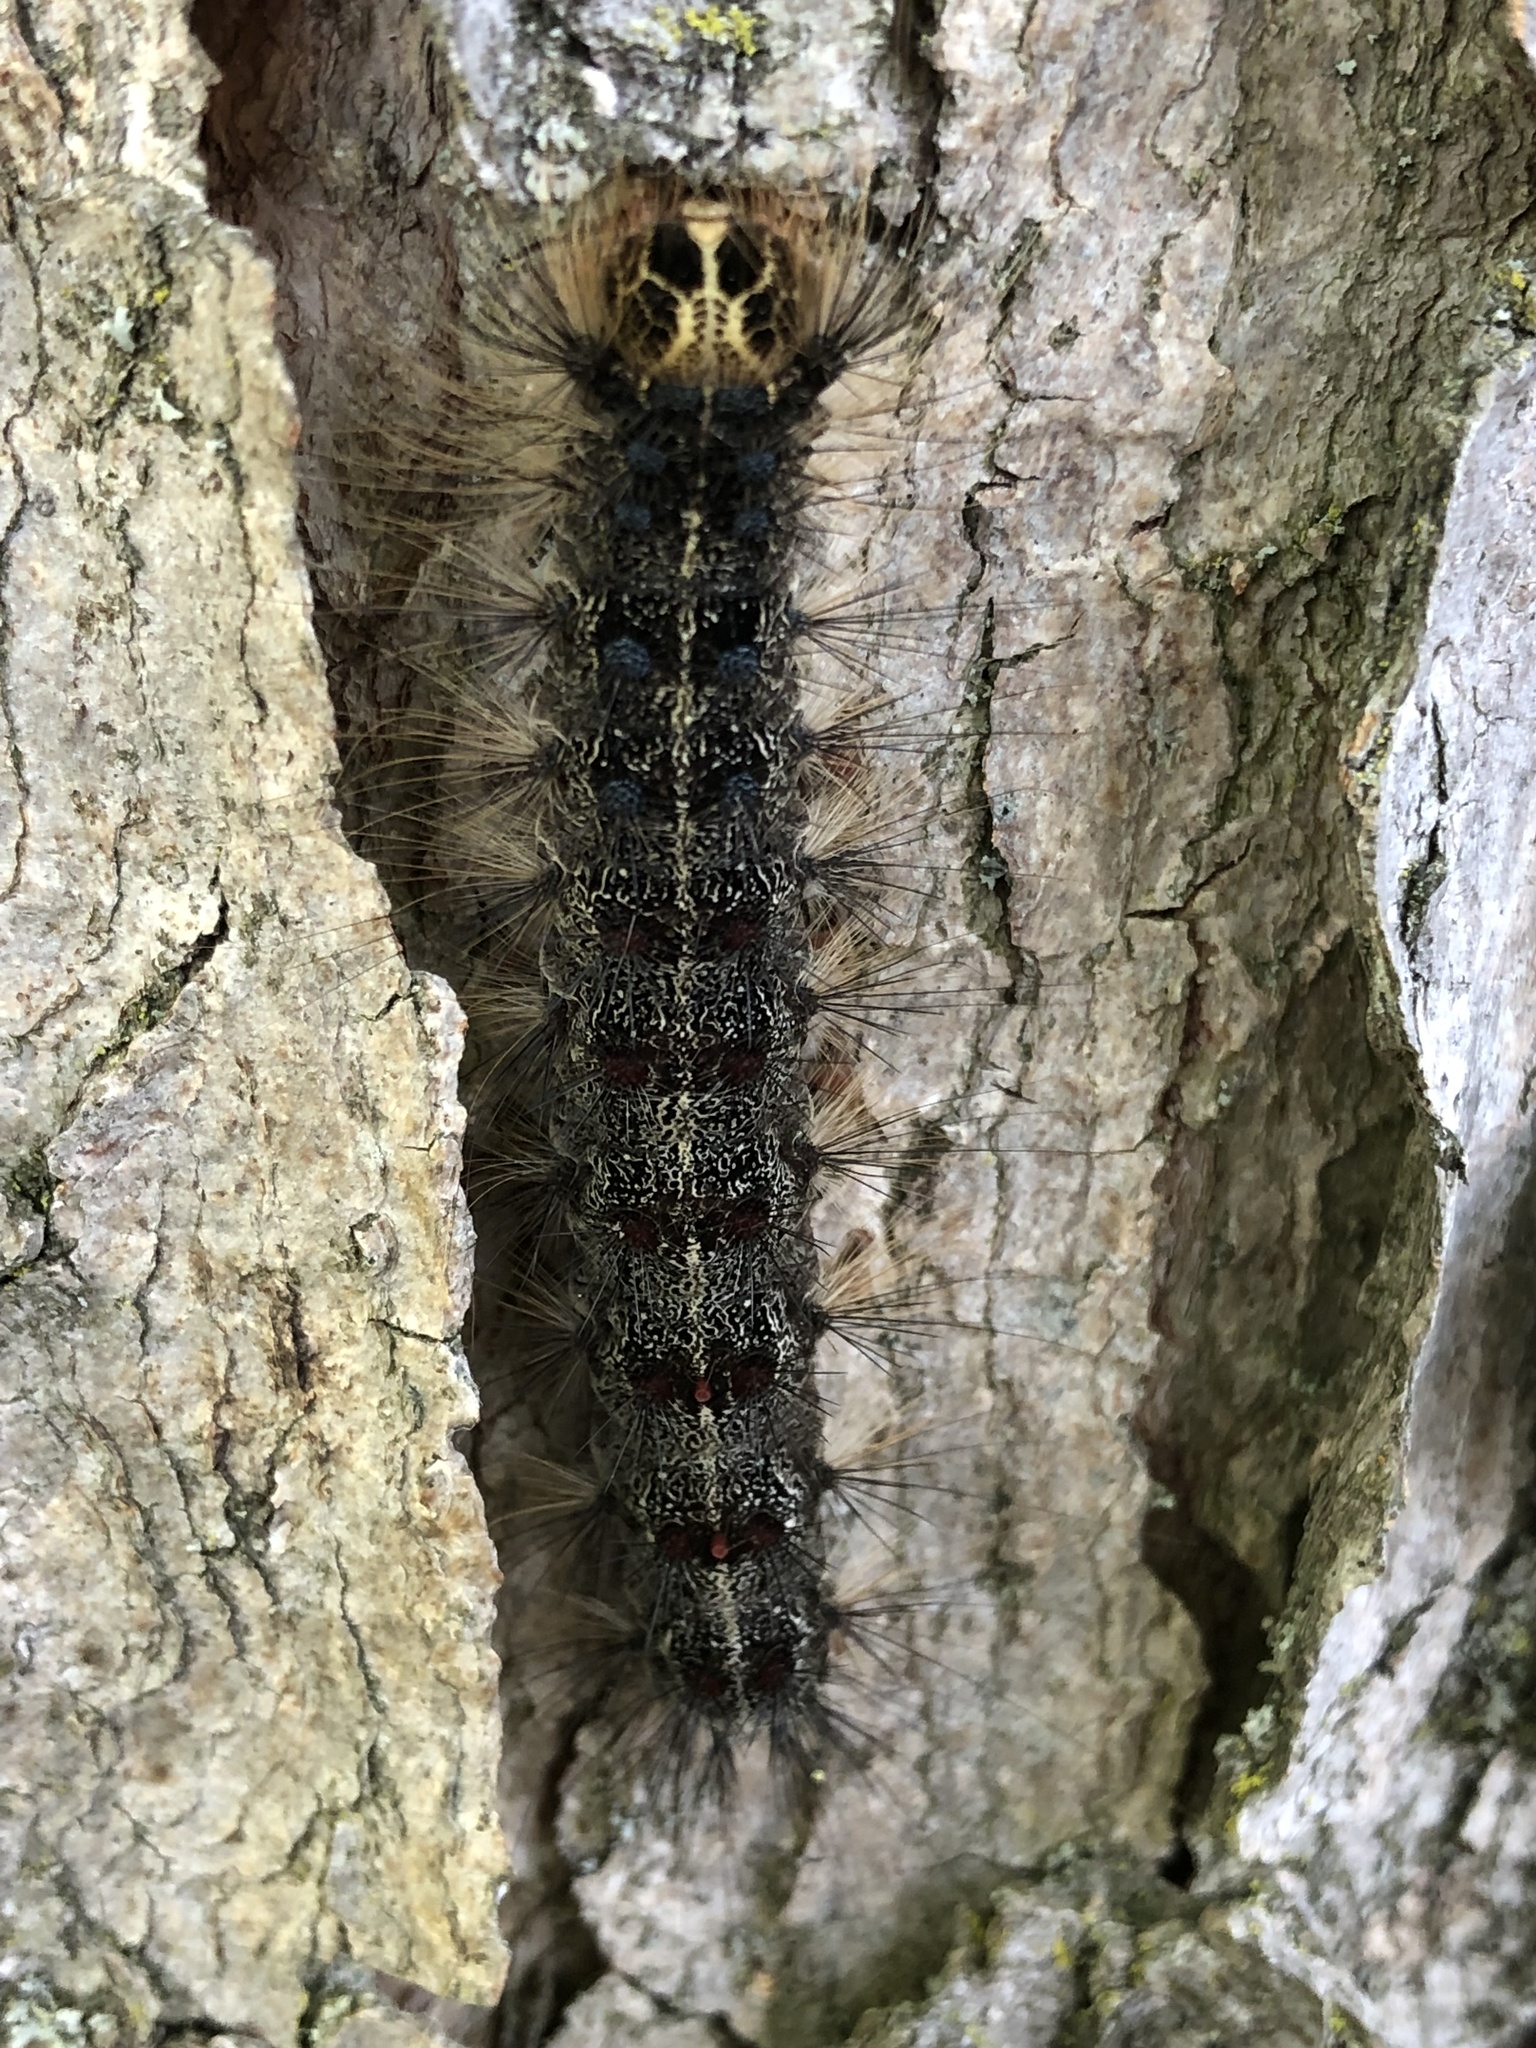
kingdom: Animalia
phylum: Arthropoda
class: Insecta
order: Lepidoptera
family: Erebidae
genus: Lymantria
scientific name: Lymantria dispar
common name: Gypsy moth
